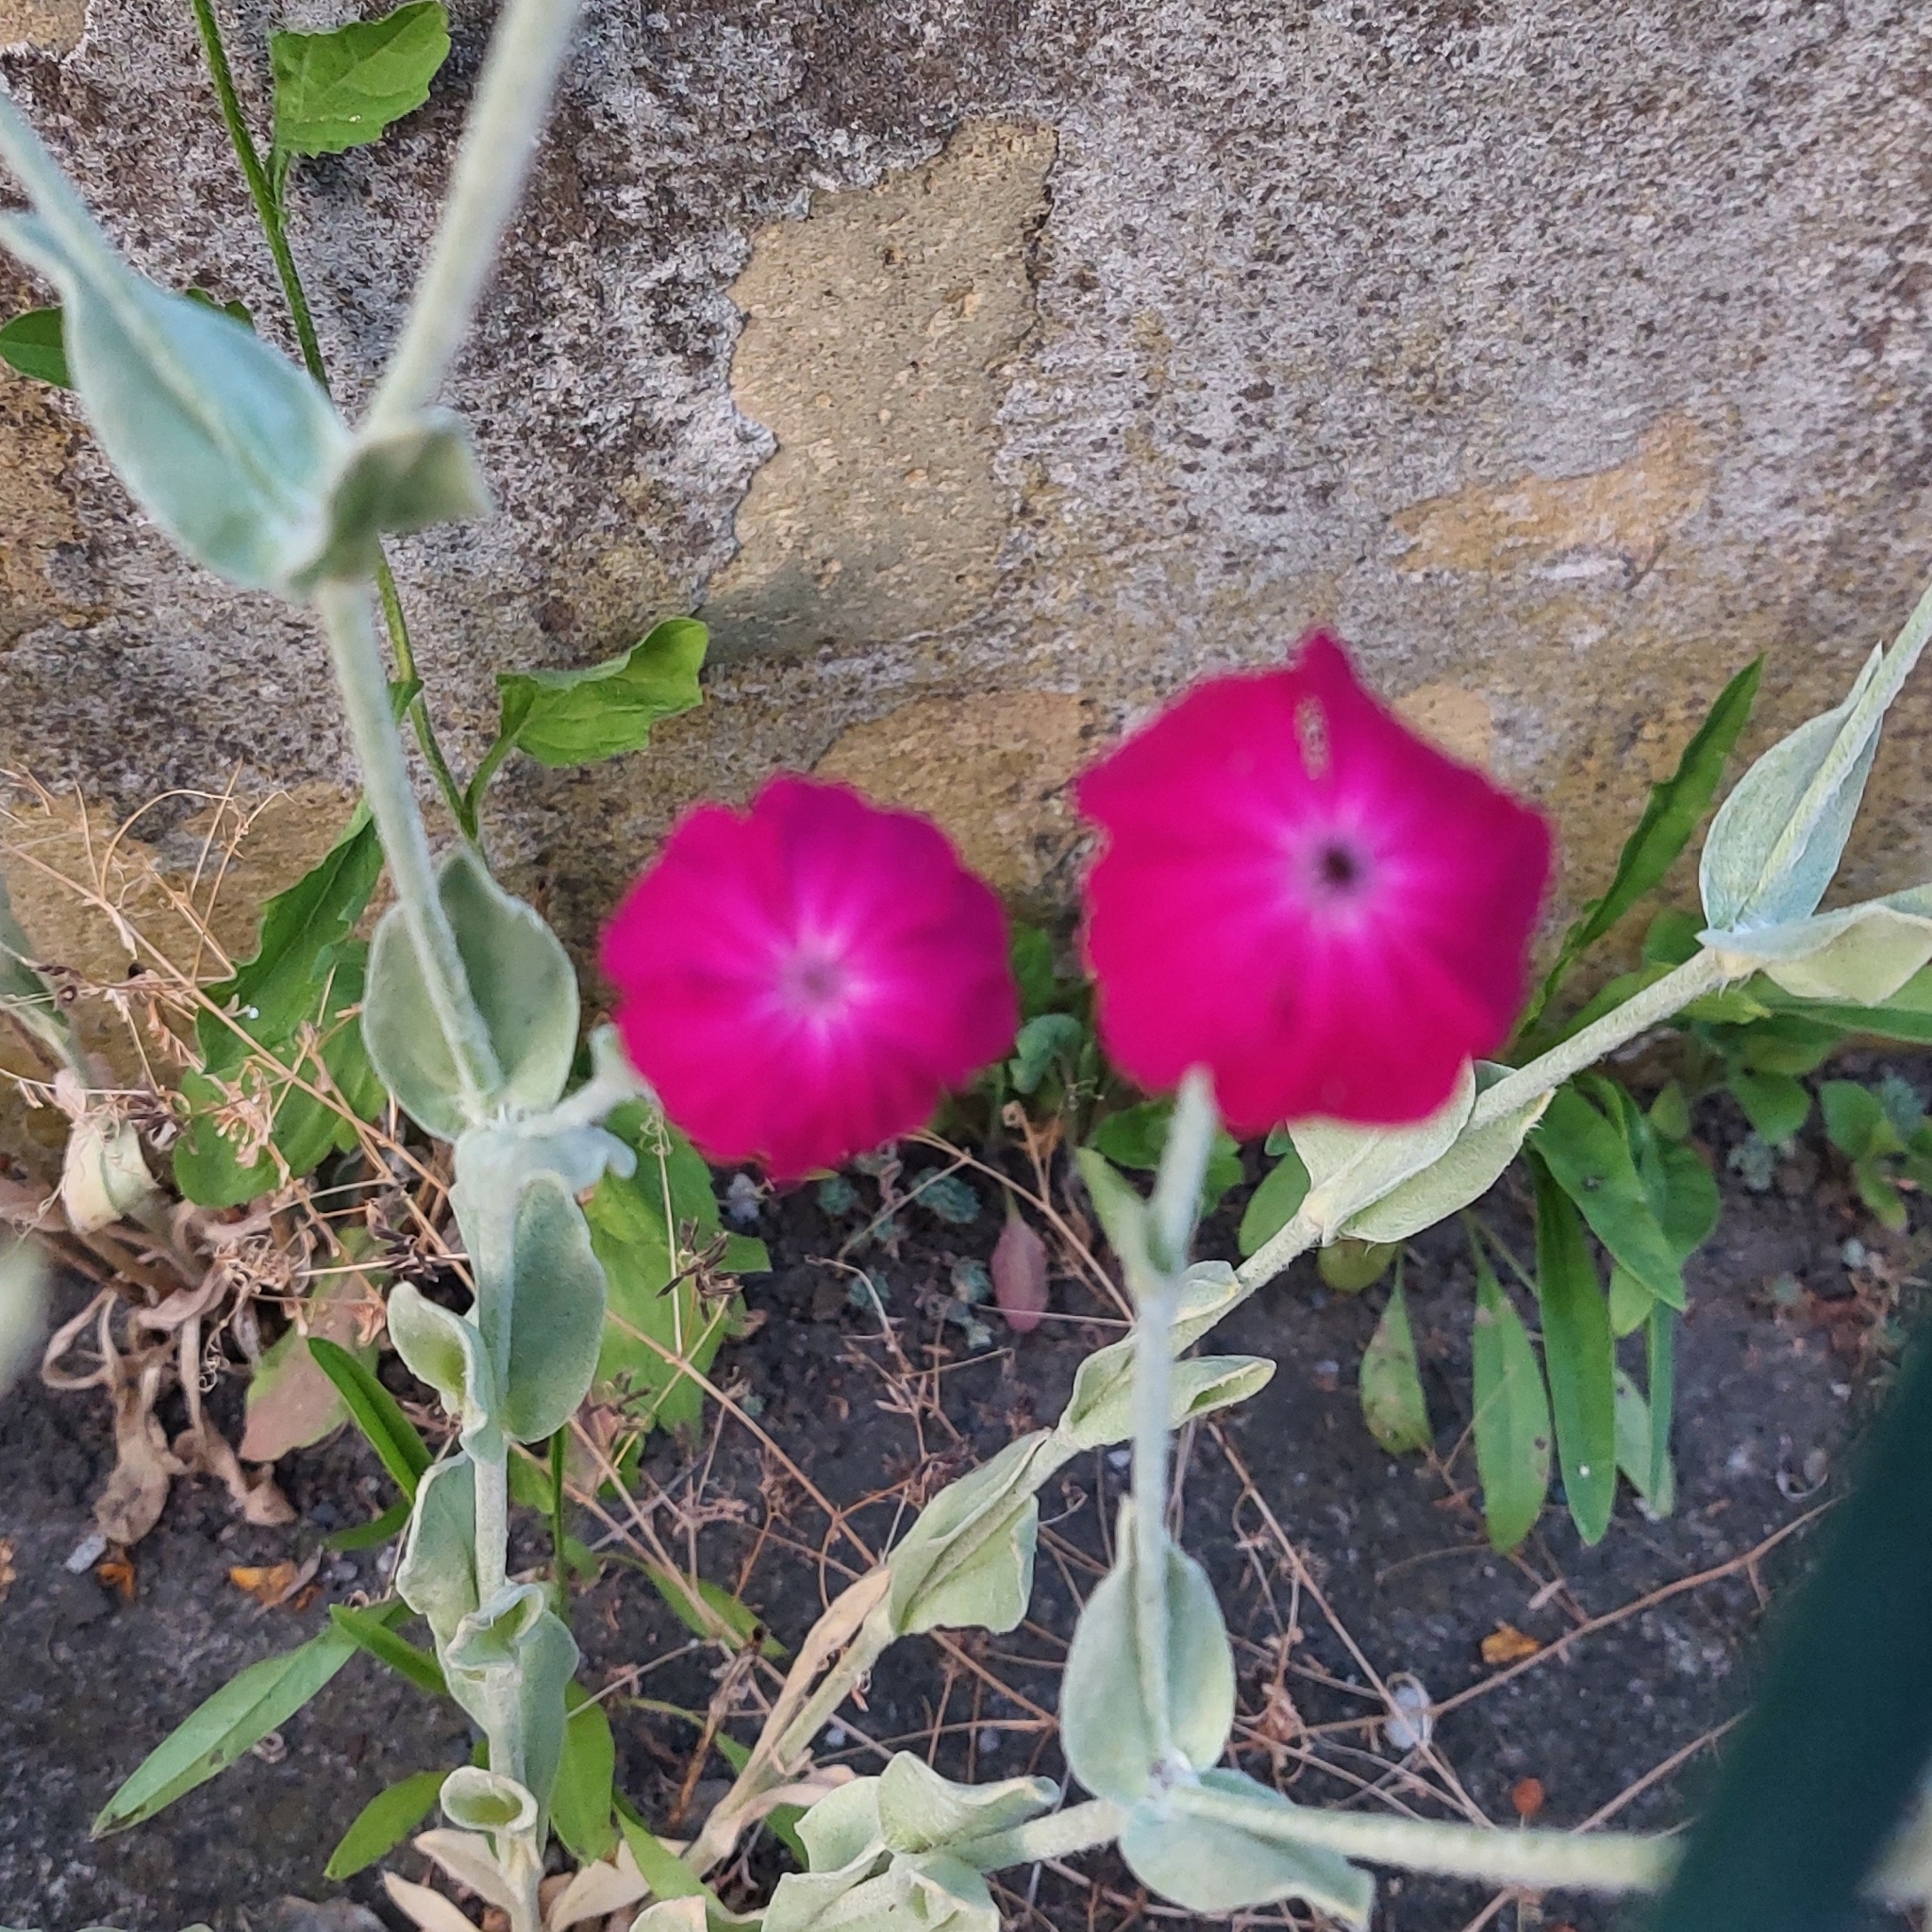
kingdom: Plantae
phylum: Tracheophyta
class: Magnoliopsida
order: Caryophyllales
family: Caryophyllaceae
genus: Silene
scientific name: Silene coronaria
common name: Rose campion
